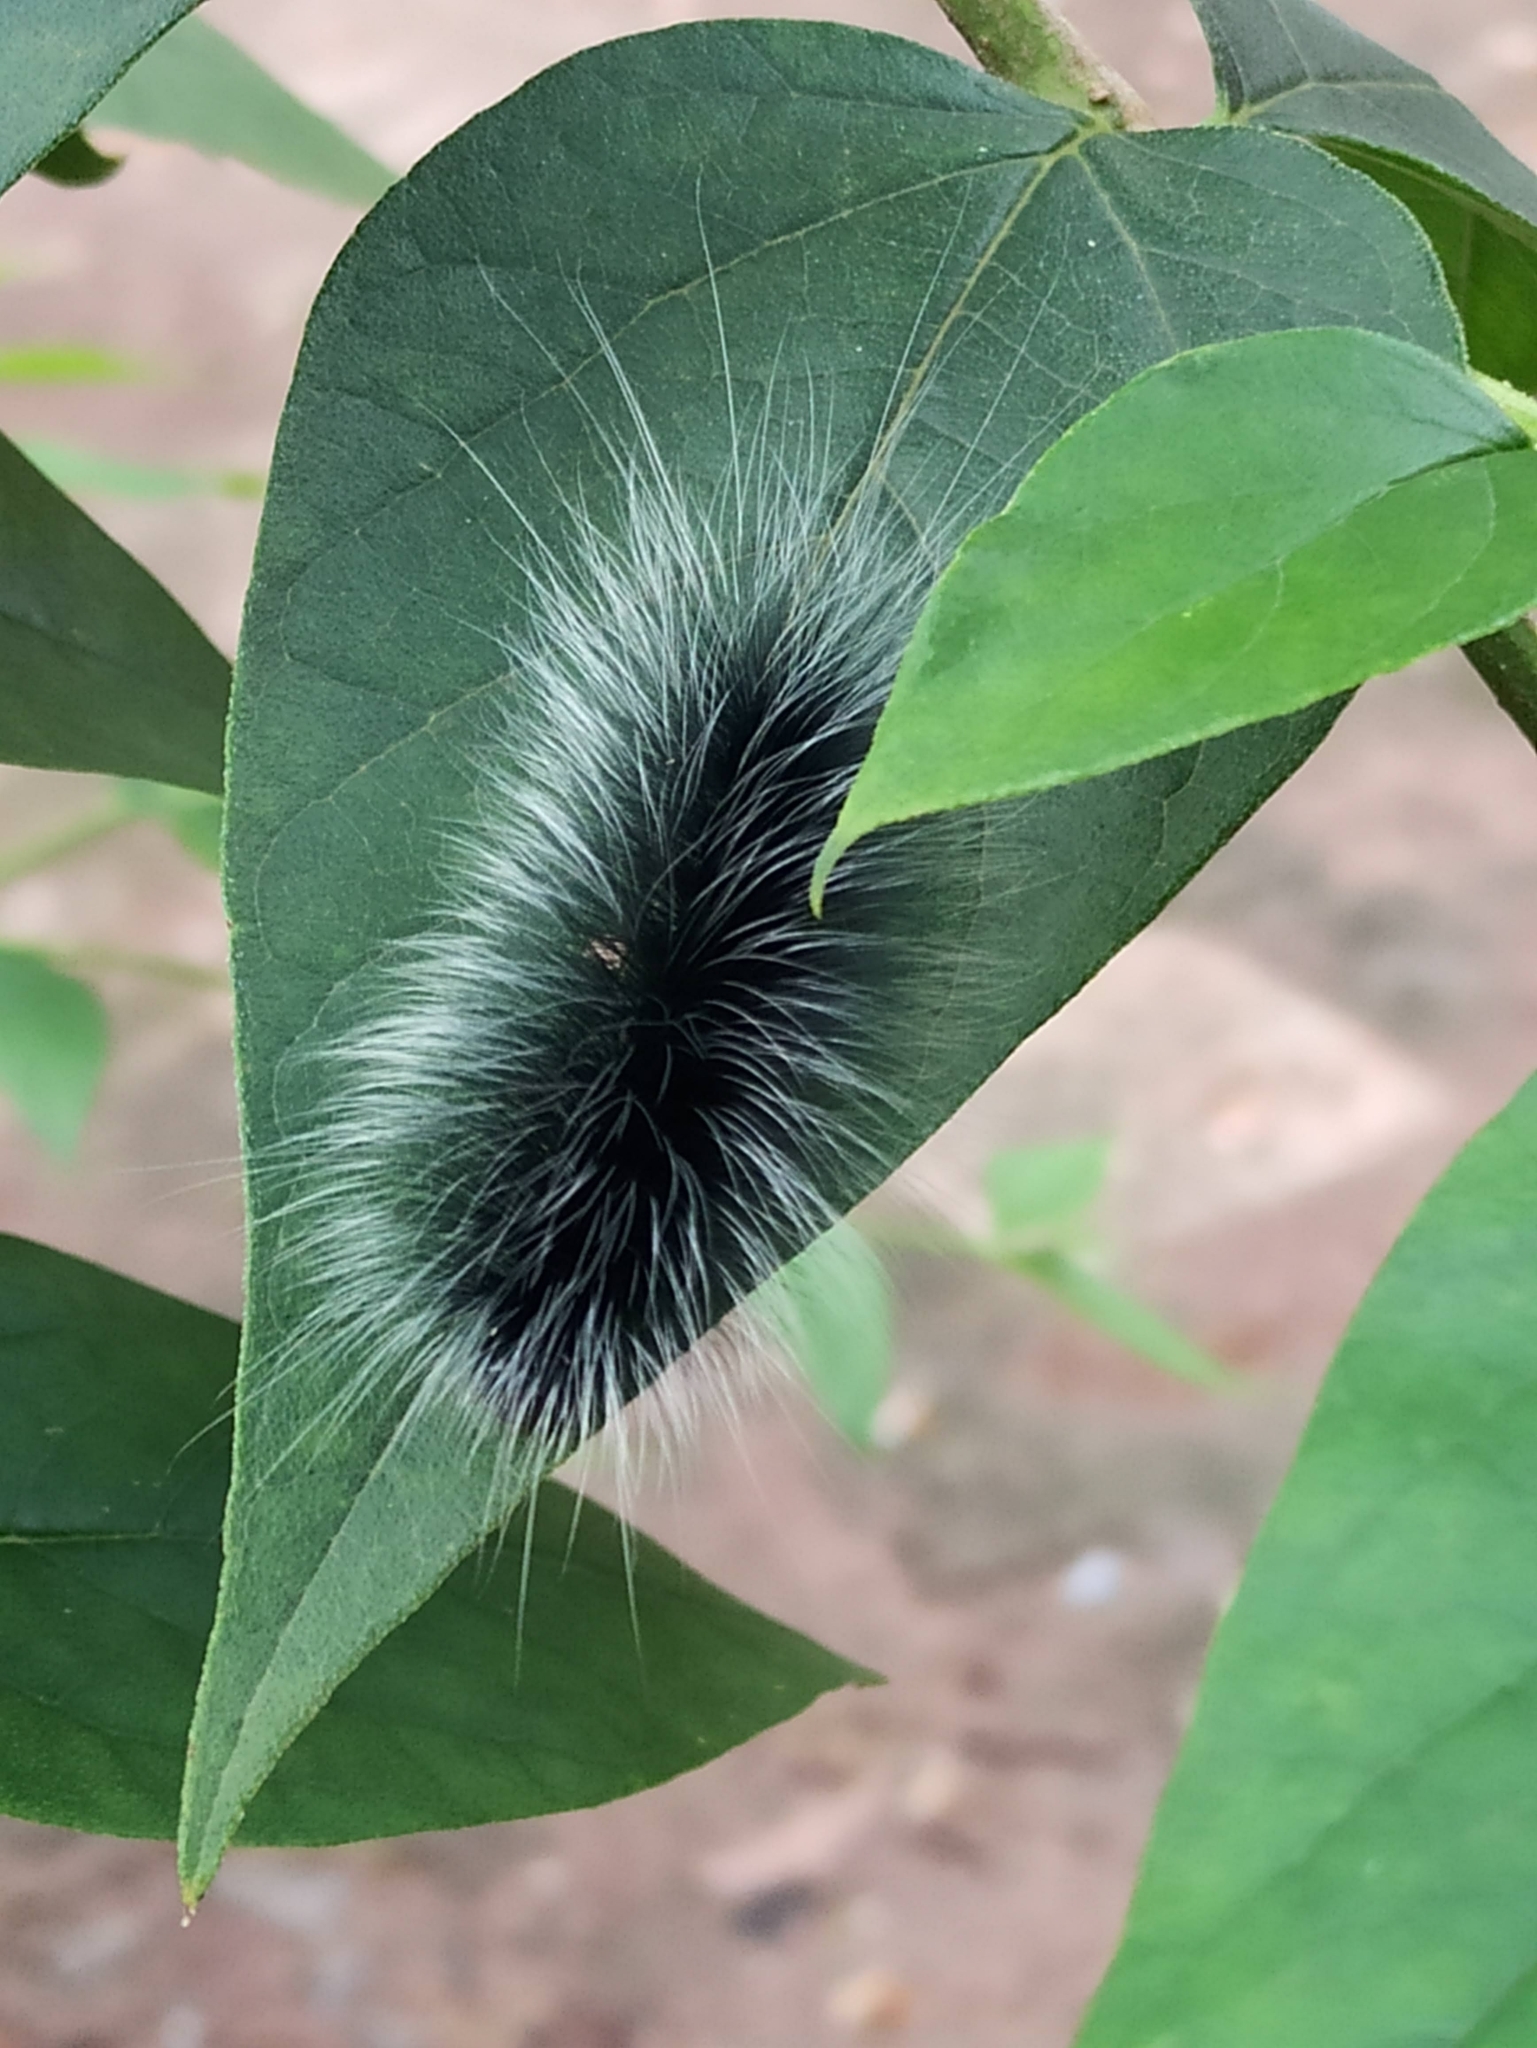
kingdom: Animalia
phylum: Arthropoda
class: Insecta
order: Lepidoptera
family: Erebidae
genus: Macrobrochis
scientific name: Macrobrochis gigas
